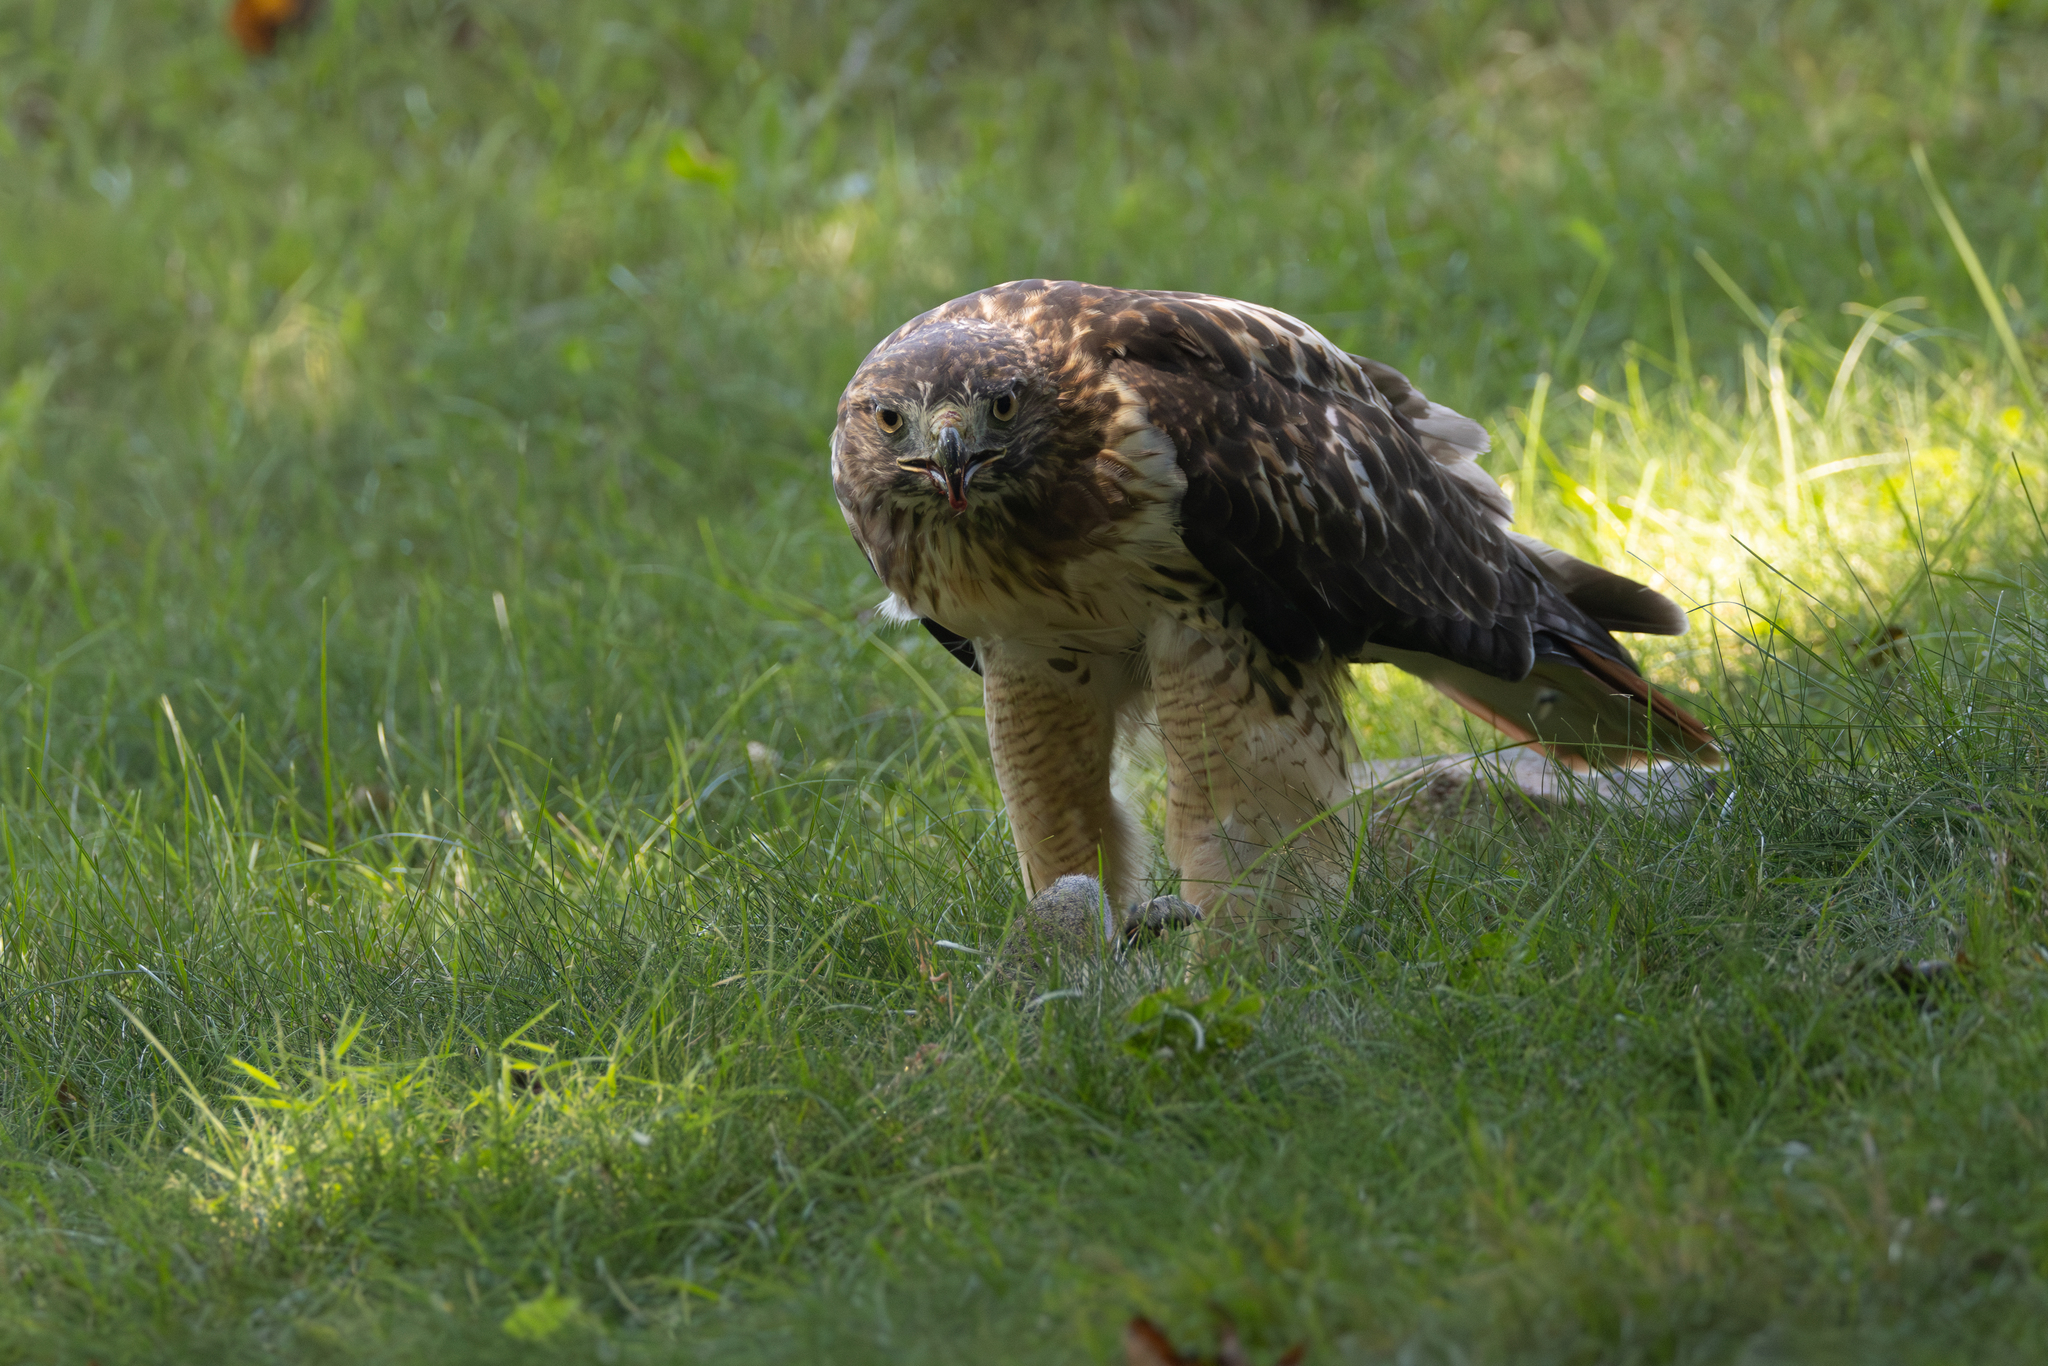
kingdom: Animalia
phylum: Chordata
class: Aves
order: Accipitriformes
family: Accipitridae
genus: Buteo
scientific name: Buteo jamaicensis
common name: Red-tailed hawk
